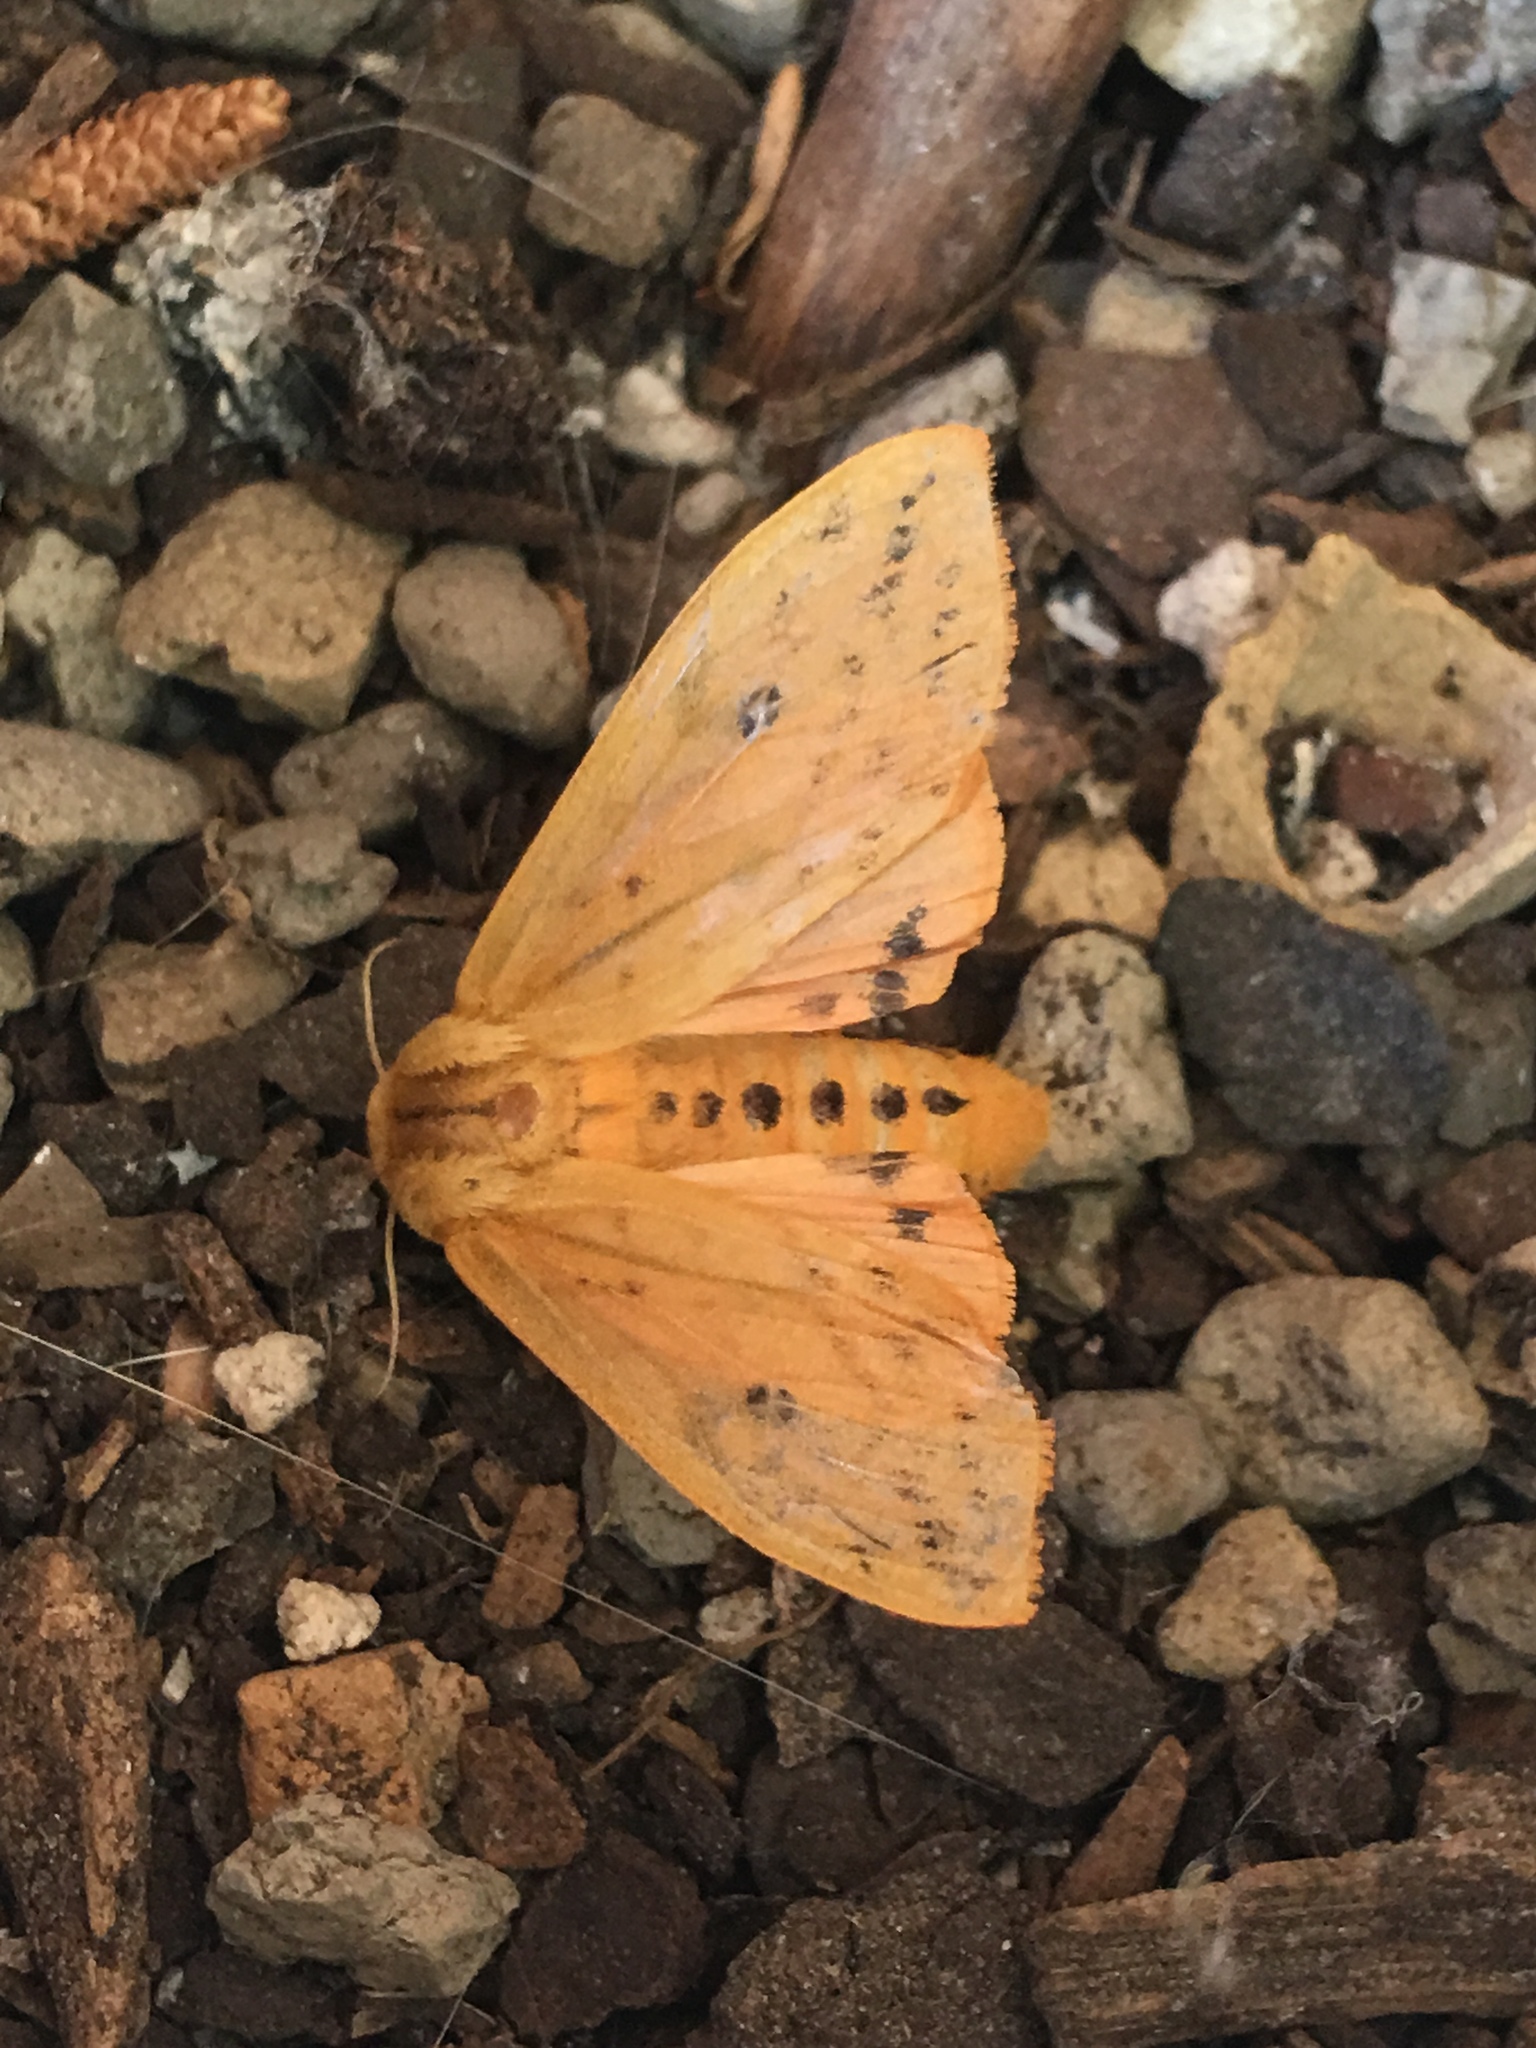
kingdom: Animalia
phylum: Arthropoda
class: Insecta
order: Lepidoptera
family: Erebidae
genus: Pyrrharctia
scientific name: Pyrrharctia isabella
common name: Isabella tiger moth
